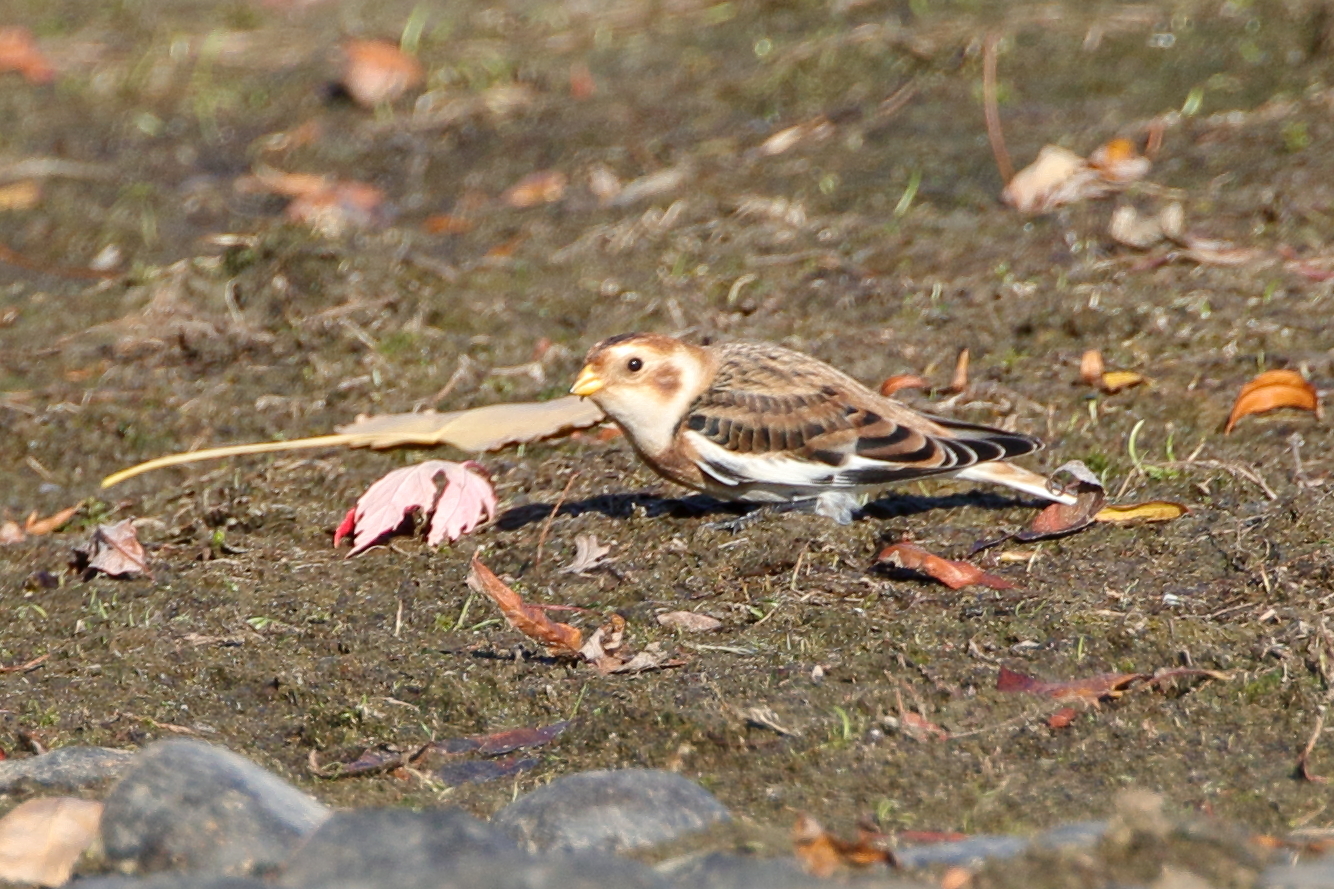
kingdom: Animalia
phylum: Chordata
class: Aves
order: Passeriformes
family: Calcariidae
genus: Plectrophenax
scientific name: Plectrophenax nivalis
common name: Snow bunting
